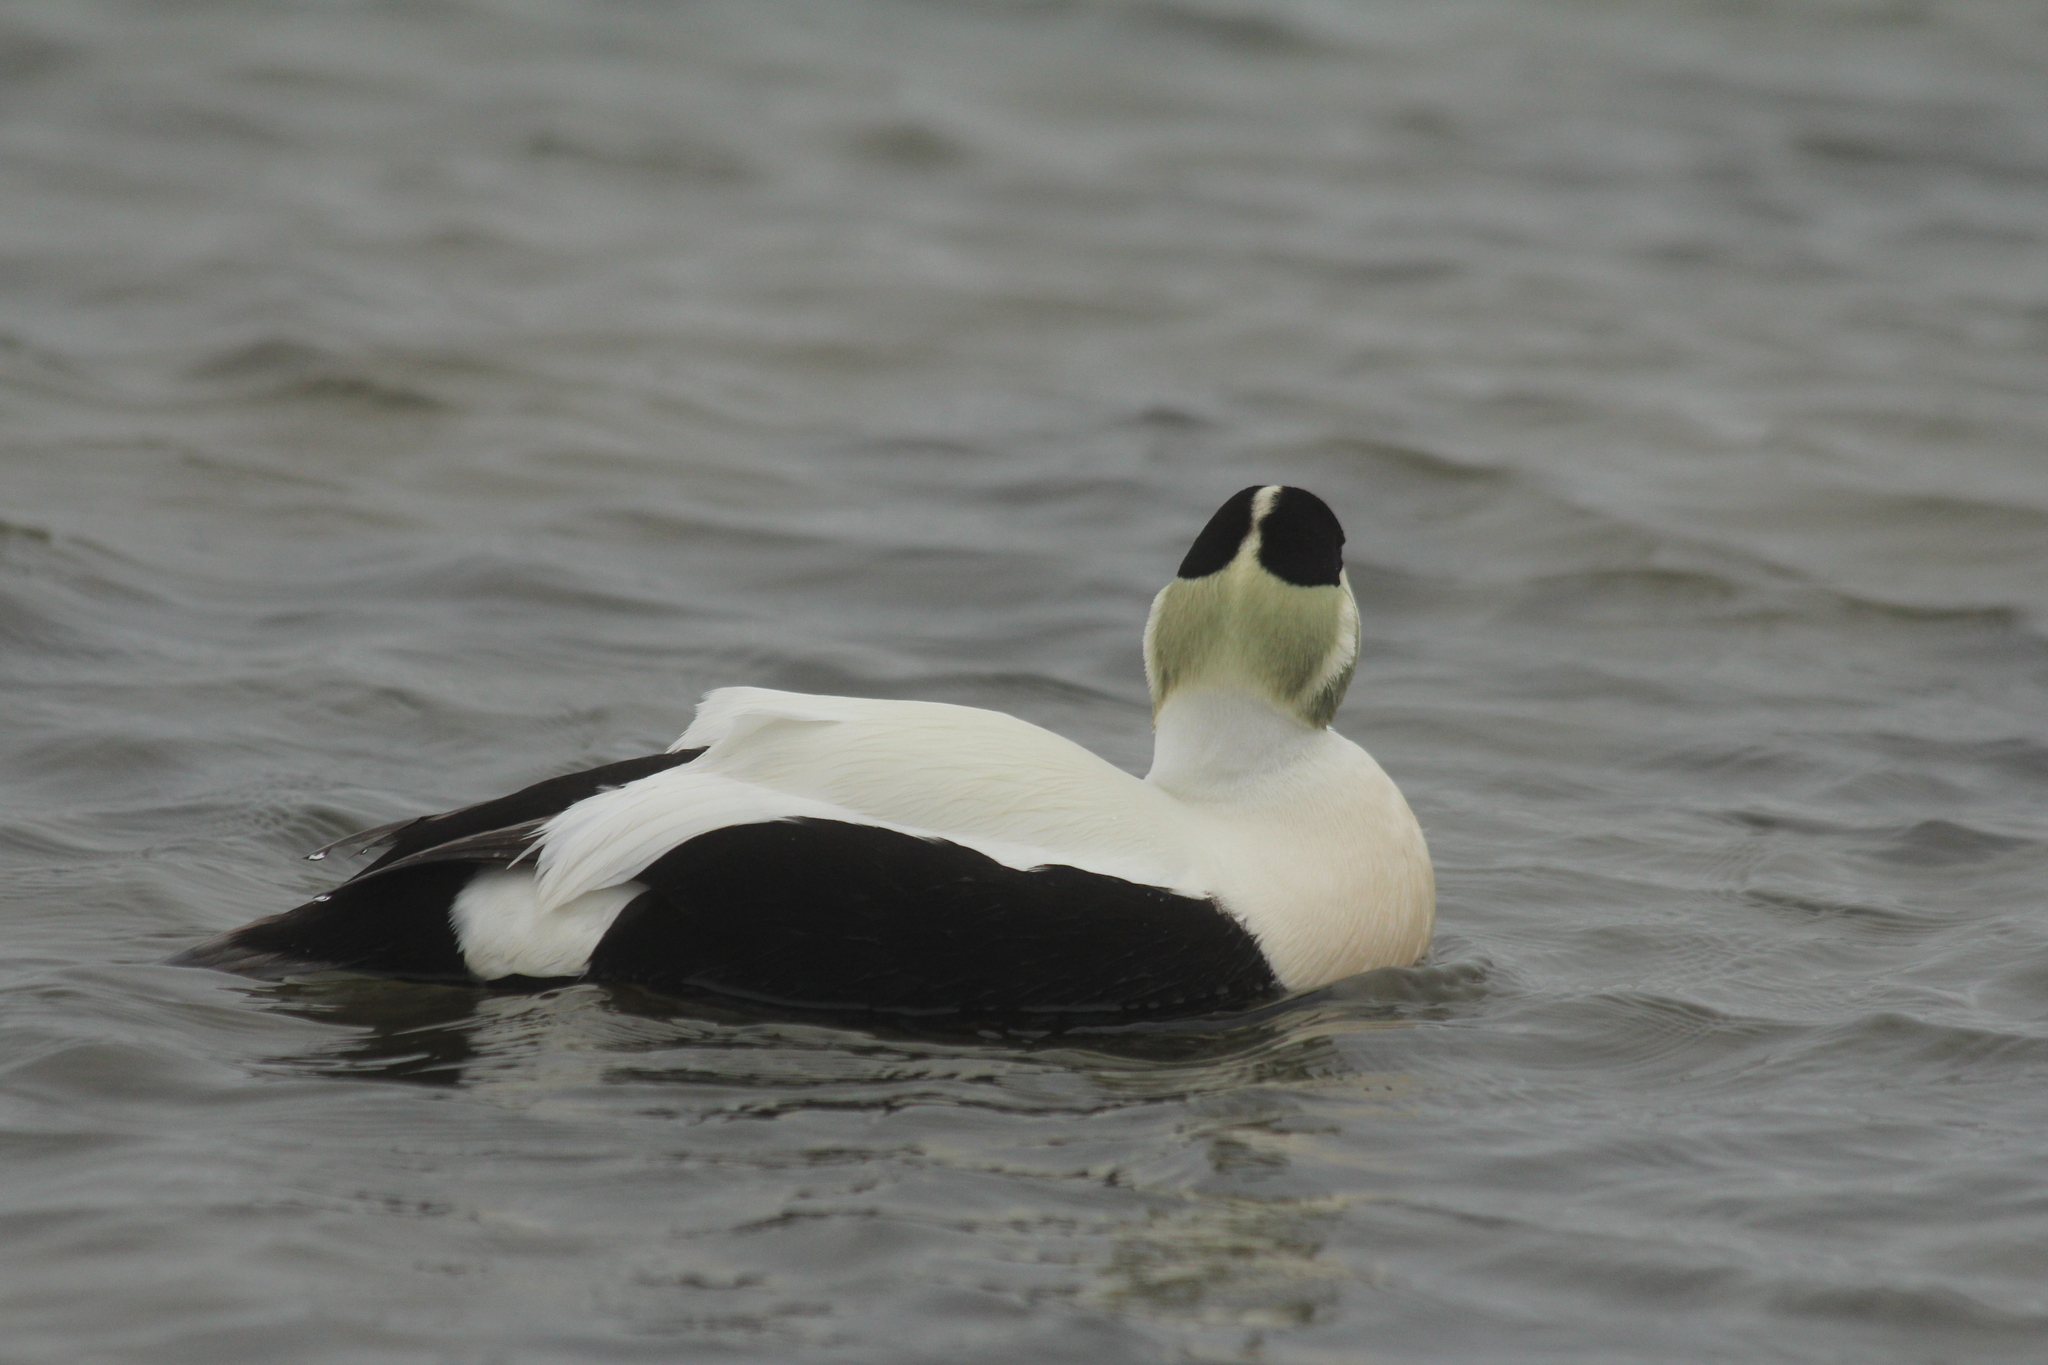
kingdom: Animalia
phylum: Chordata
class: Aves
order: Anseriformes
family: Anatidae
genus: Somateria
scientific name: Somateria mollissima
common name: Common eider
